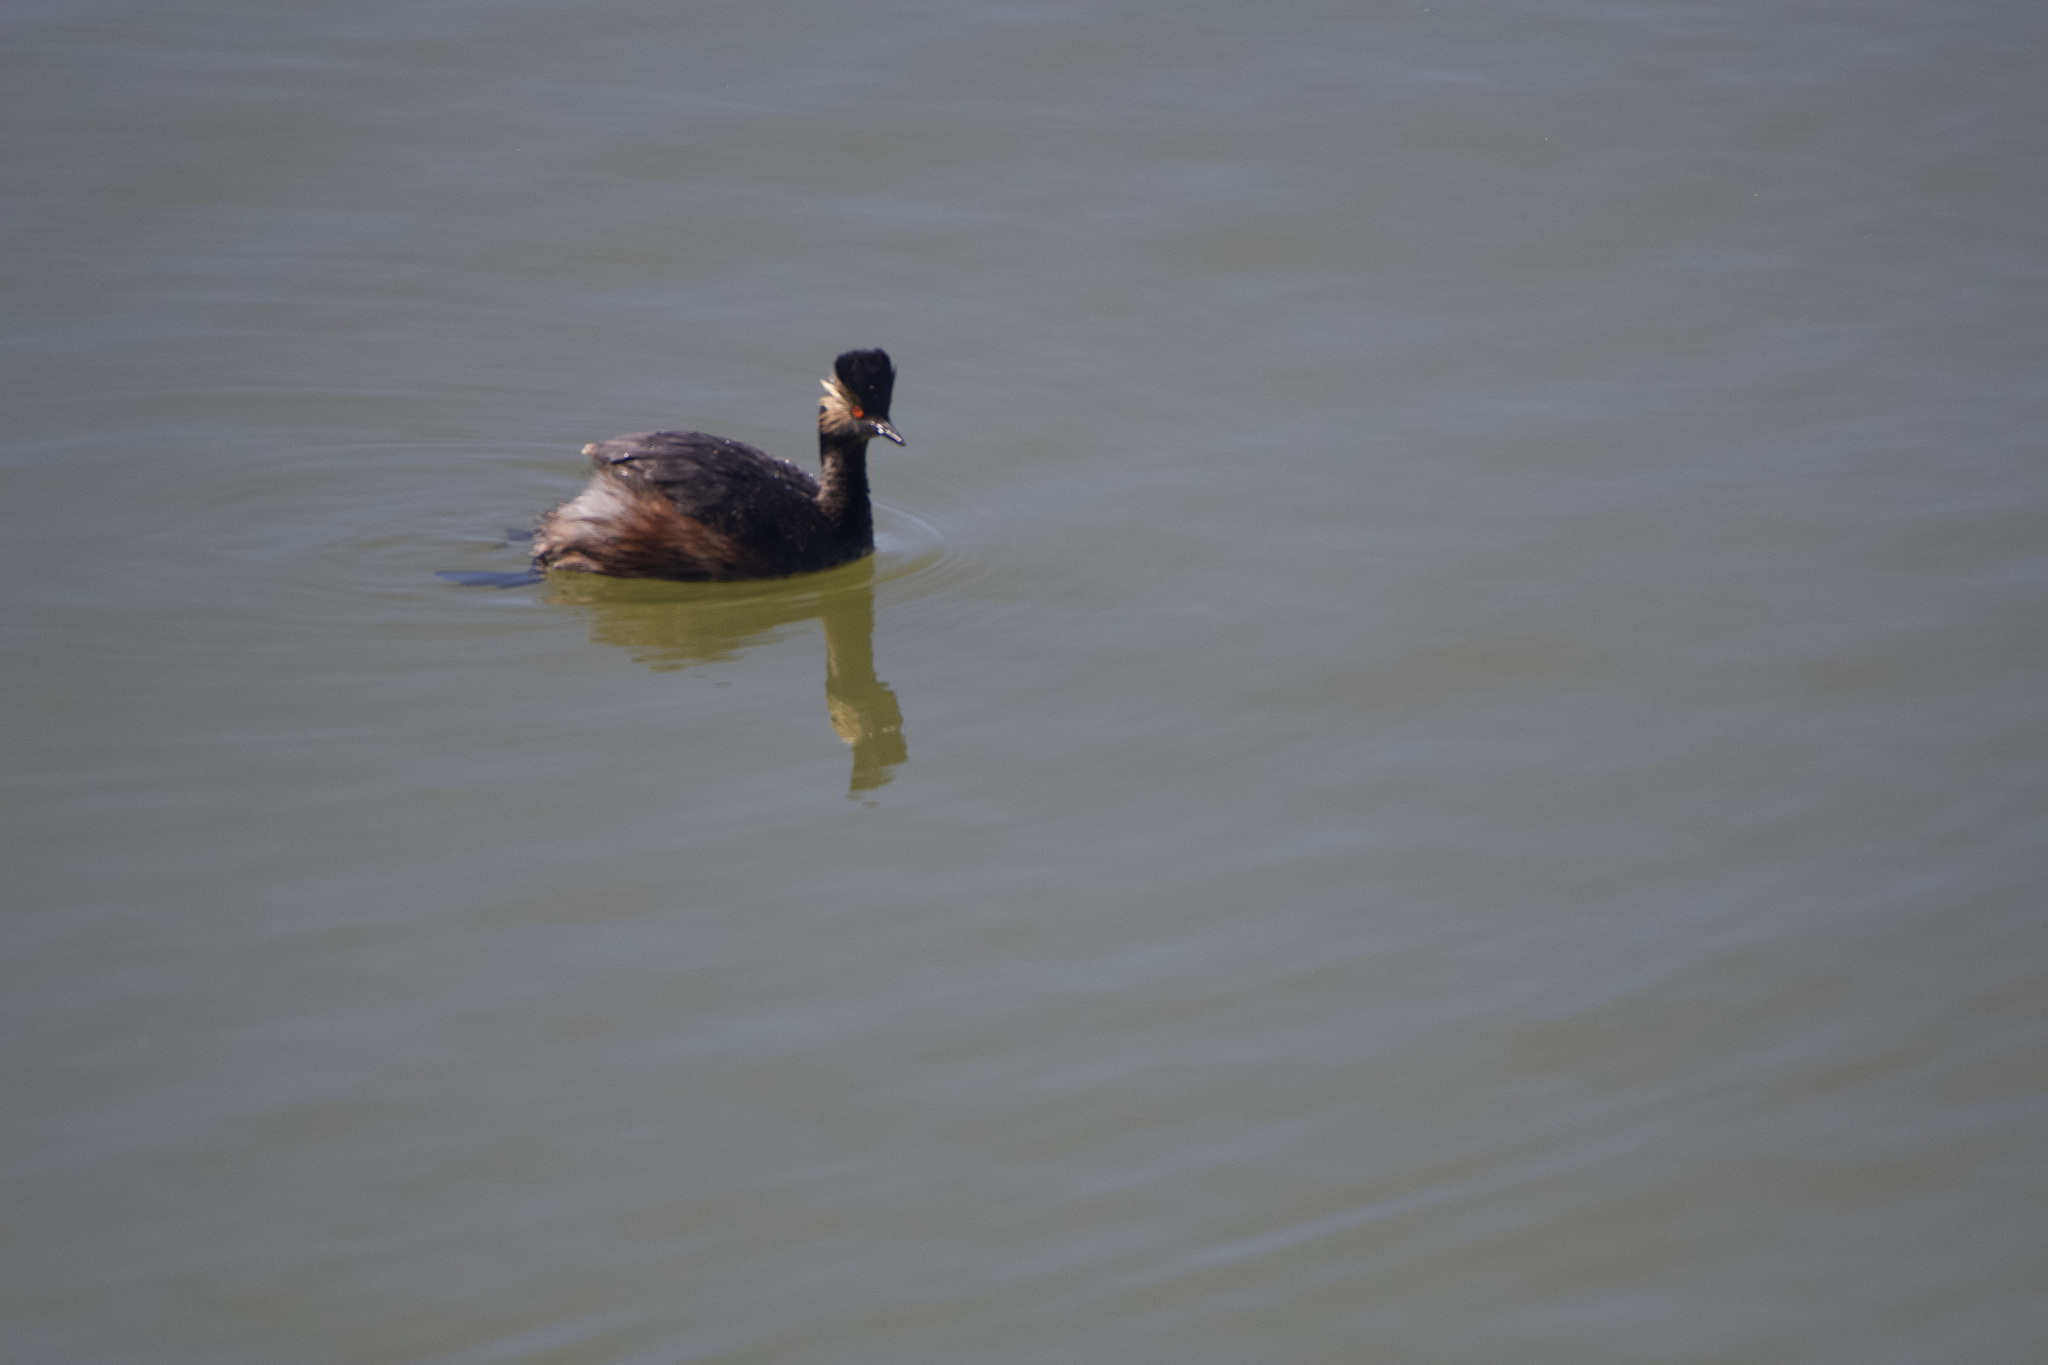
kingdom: Animalia
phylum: Chordata
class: Aves
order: Podicipediformes
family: Podicipedidae
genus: Podiceps
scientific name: Podiceps nigricollis
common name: Black-necked grebe
